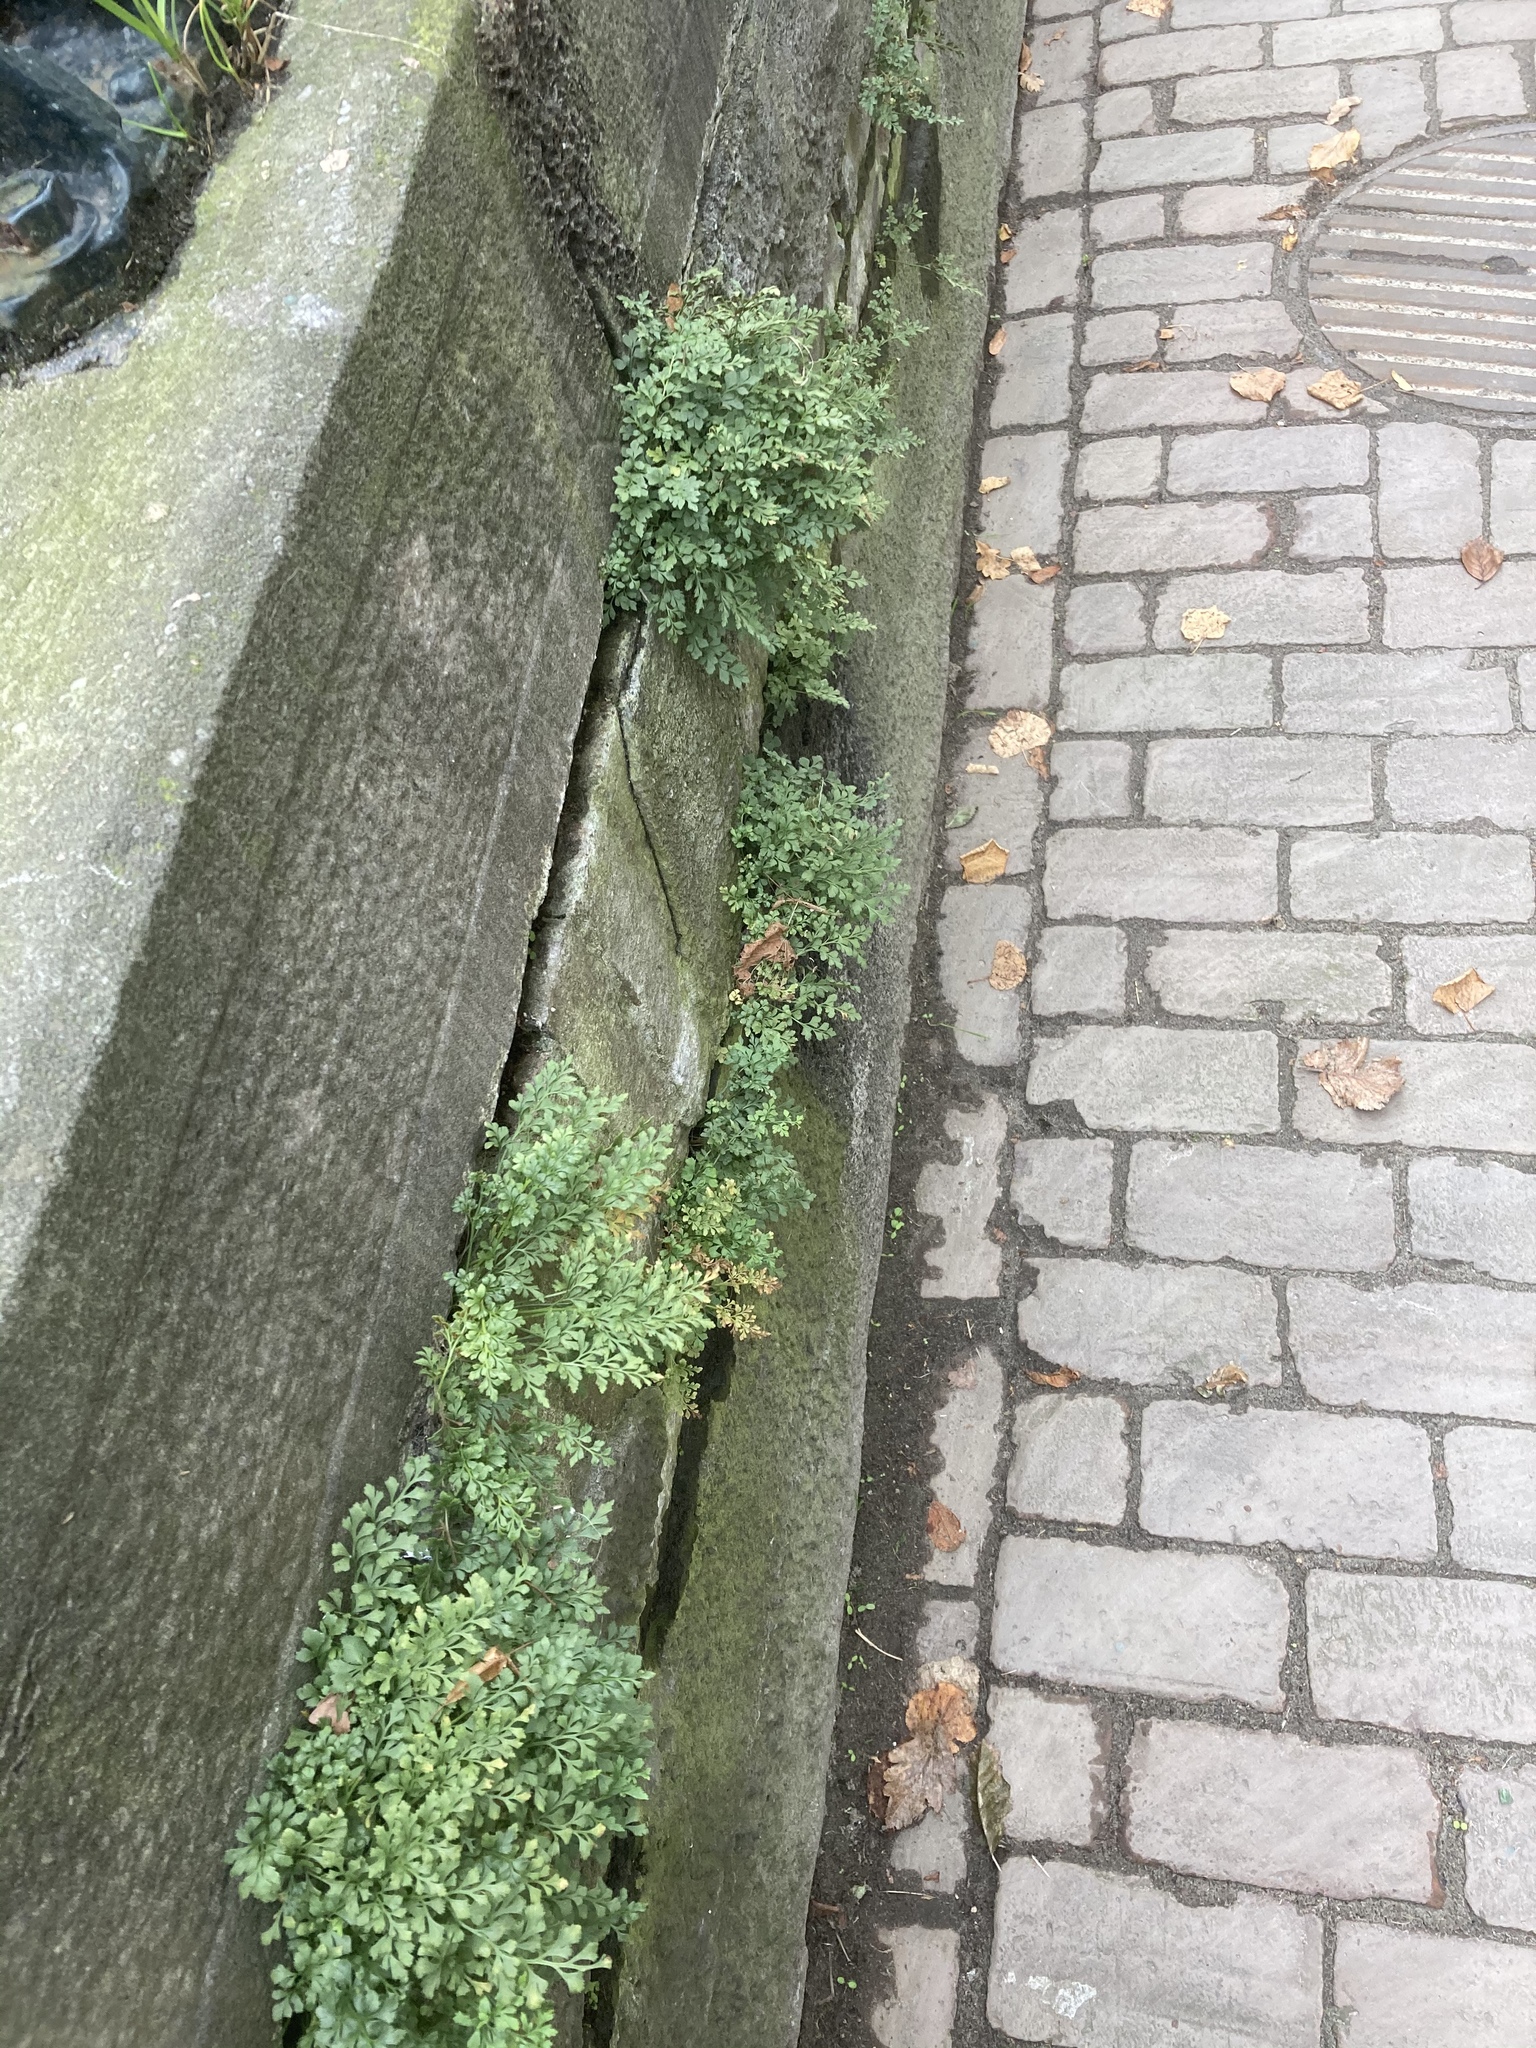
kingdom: Plantae
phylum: Tracheophyta
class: Polypodiopsida
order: Polypodiales
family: Aspleniaceae
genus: Asplenium
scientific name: Asplenium ruta-muraria
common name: Wall-rue
